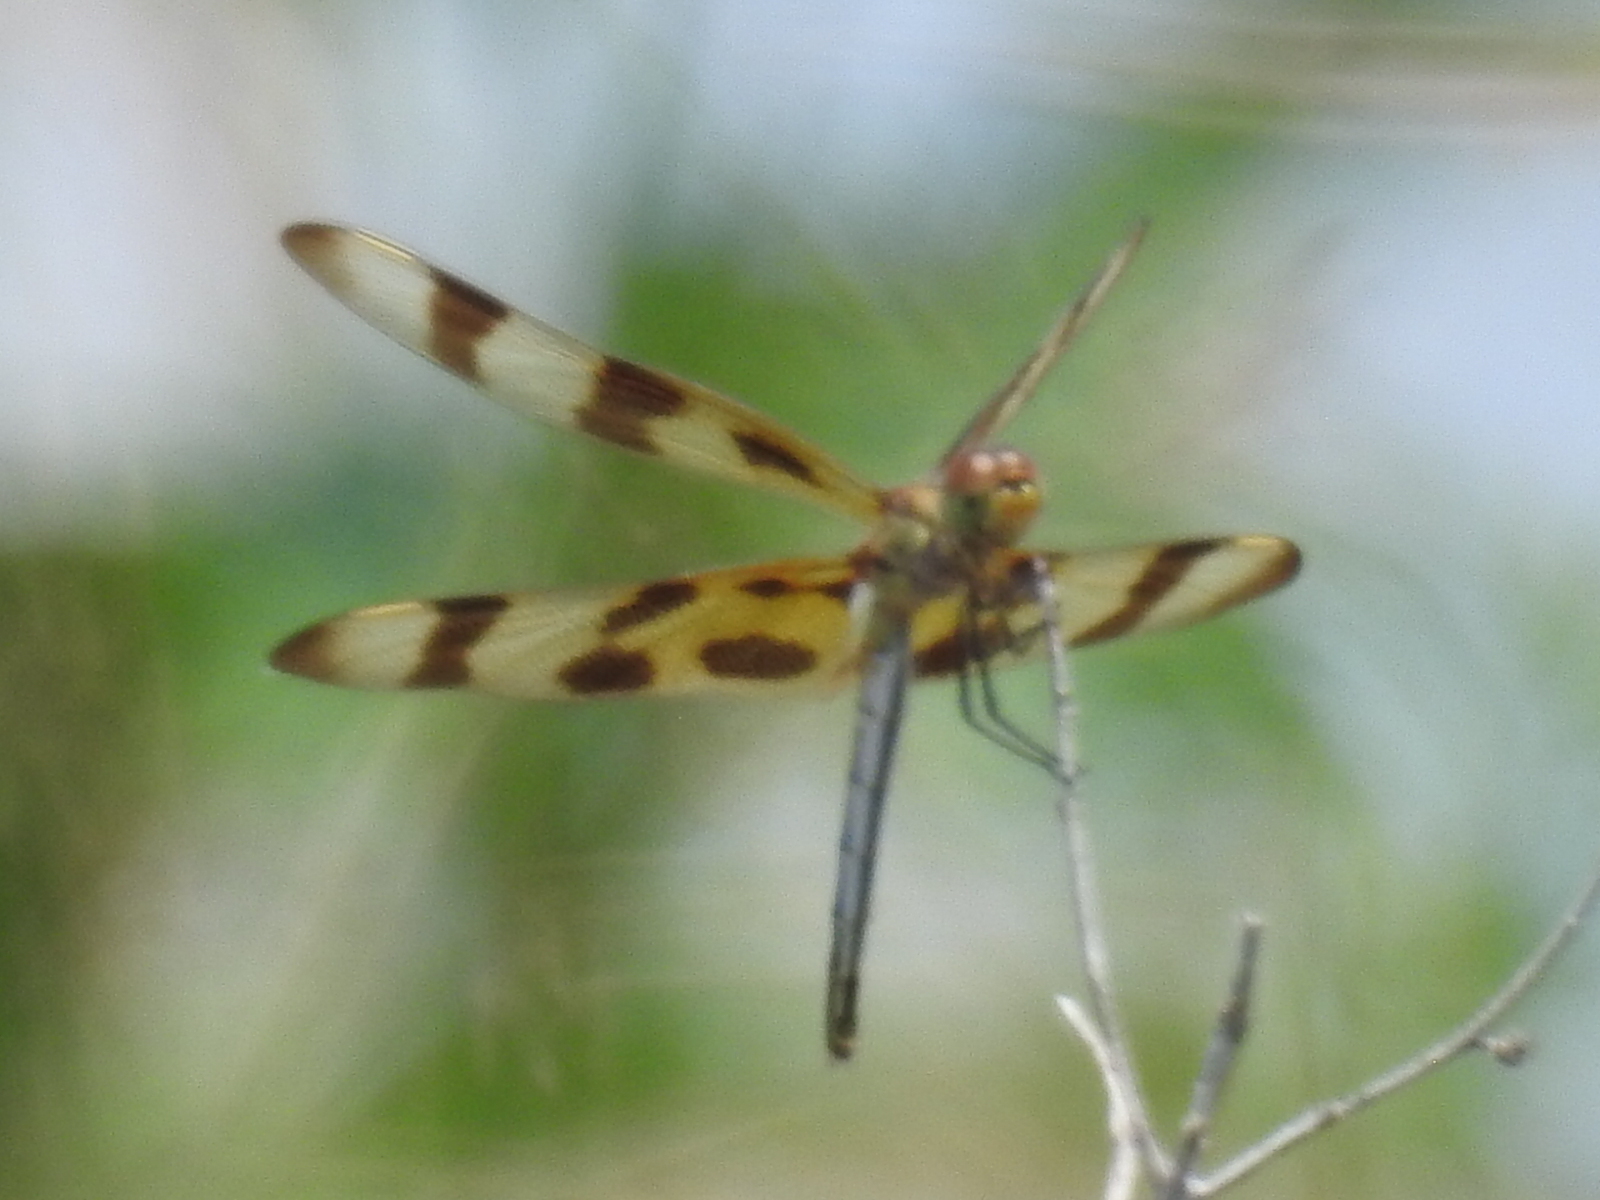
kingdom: Animalia
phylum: Arthropoda
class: Insecta
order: Odonata
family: Libellulidae
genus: Celithemis
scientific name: Celithemis eponina
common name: Halloween pennant
